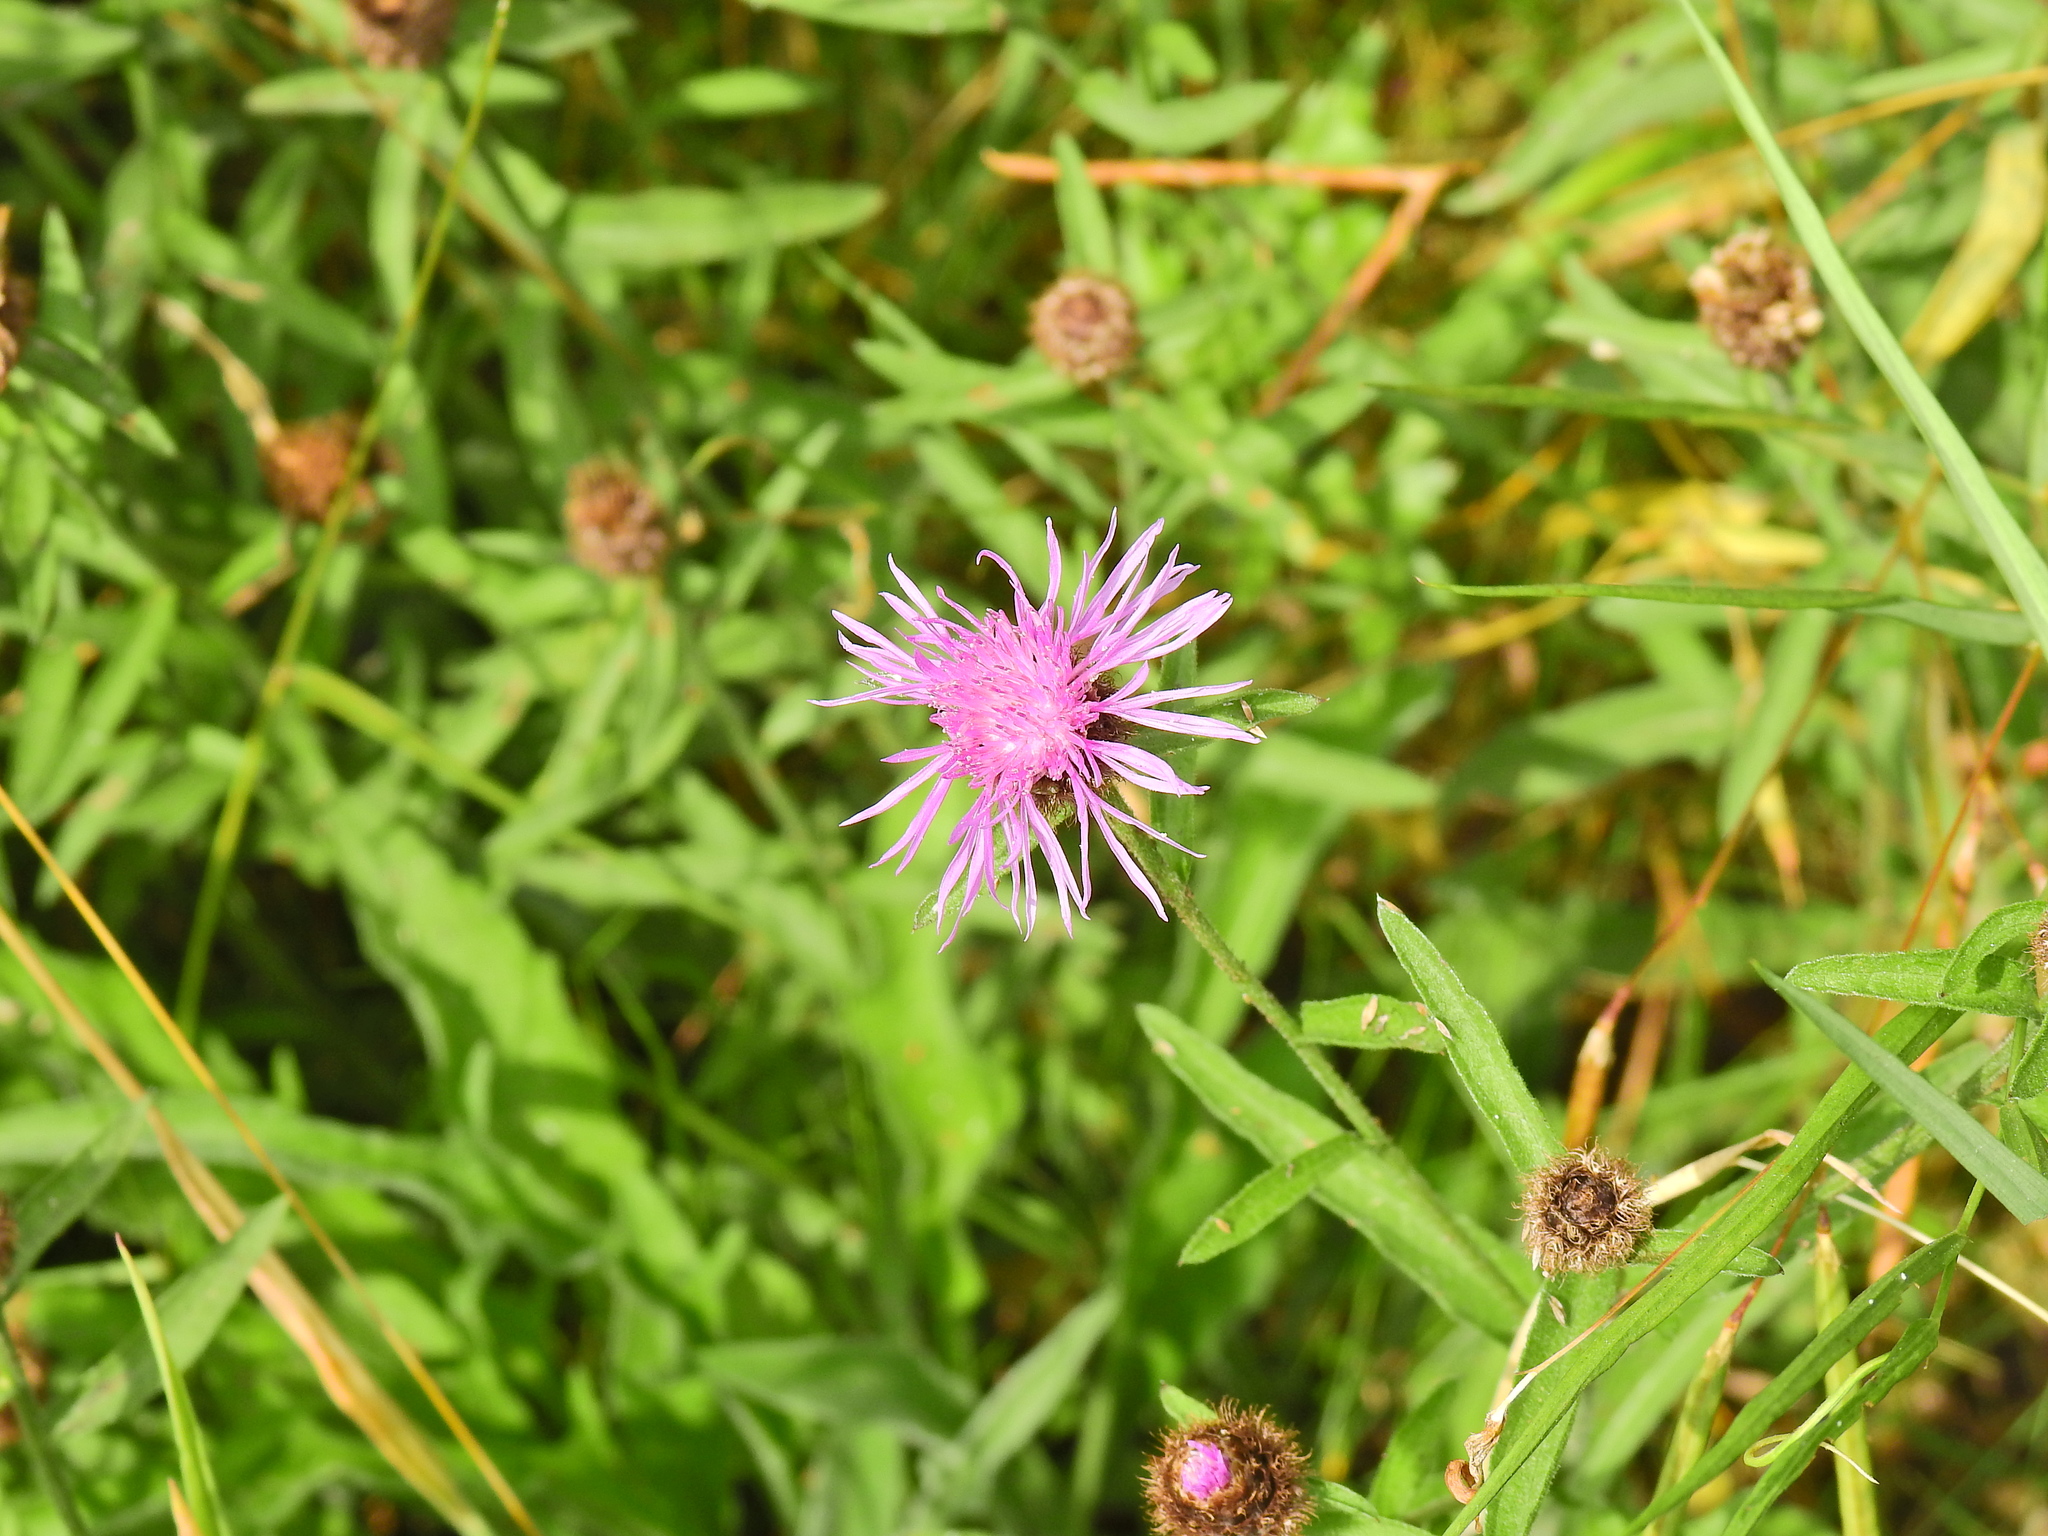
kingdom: Plantae
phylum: Tracheophyta
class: Magnoliopsida
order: Asterales
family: Asteraceae
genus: Centaurea
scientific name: Centaurea nigra
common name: Lesser knapweed
